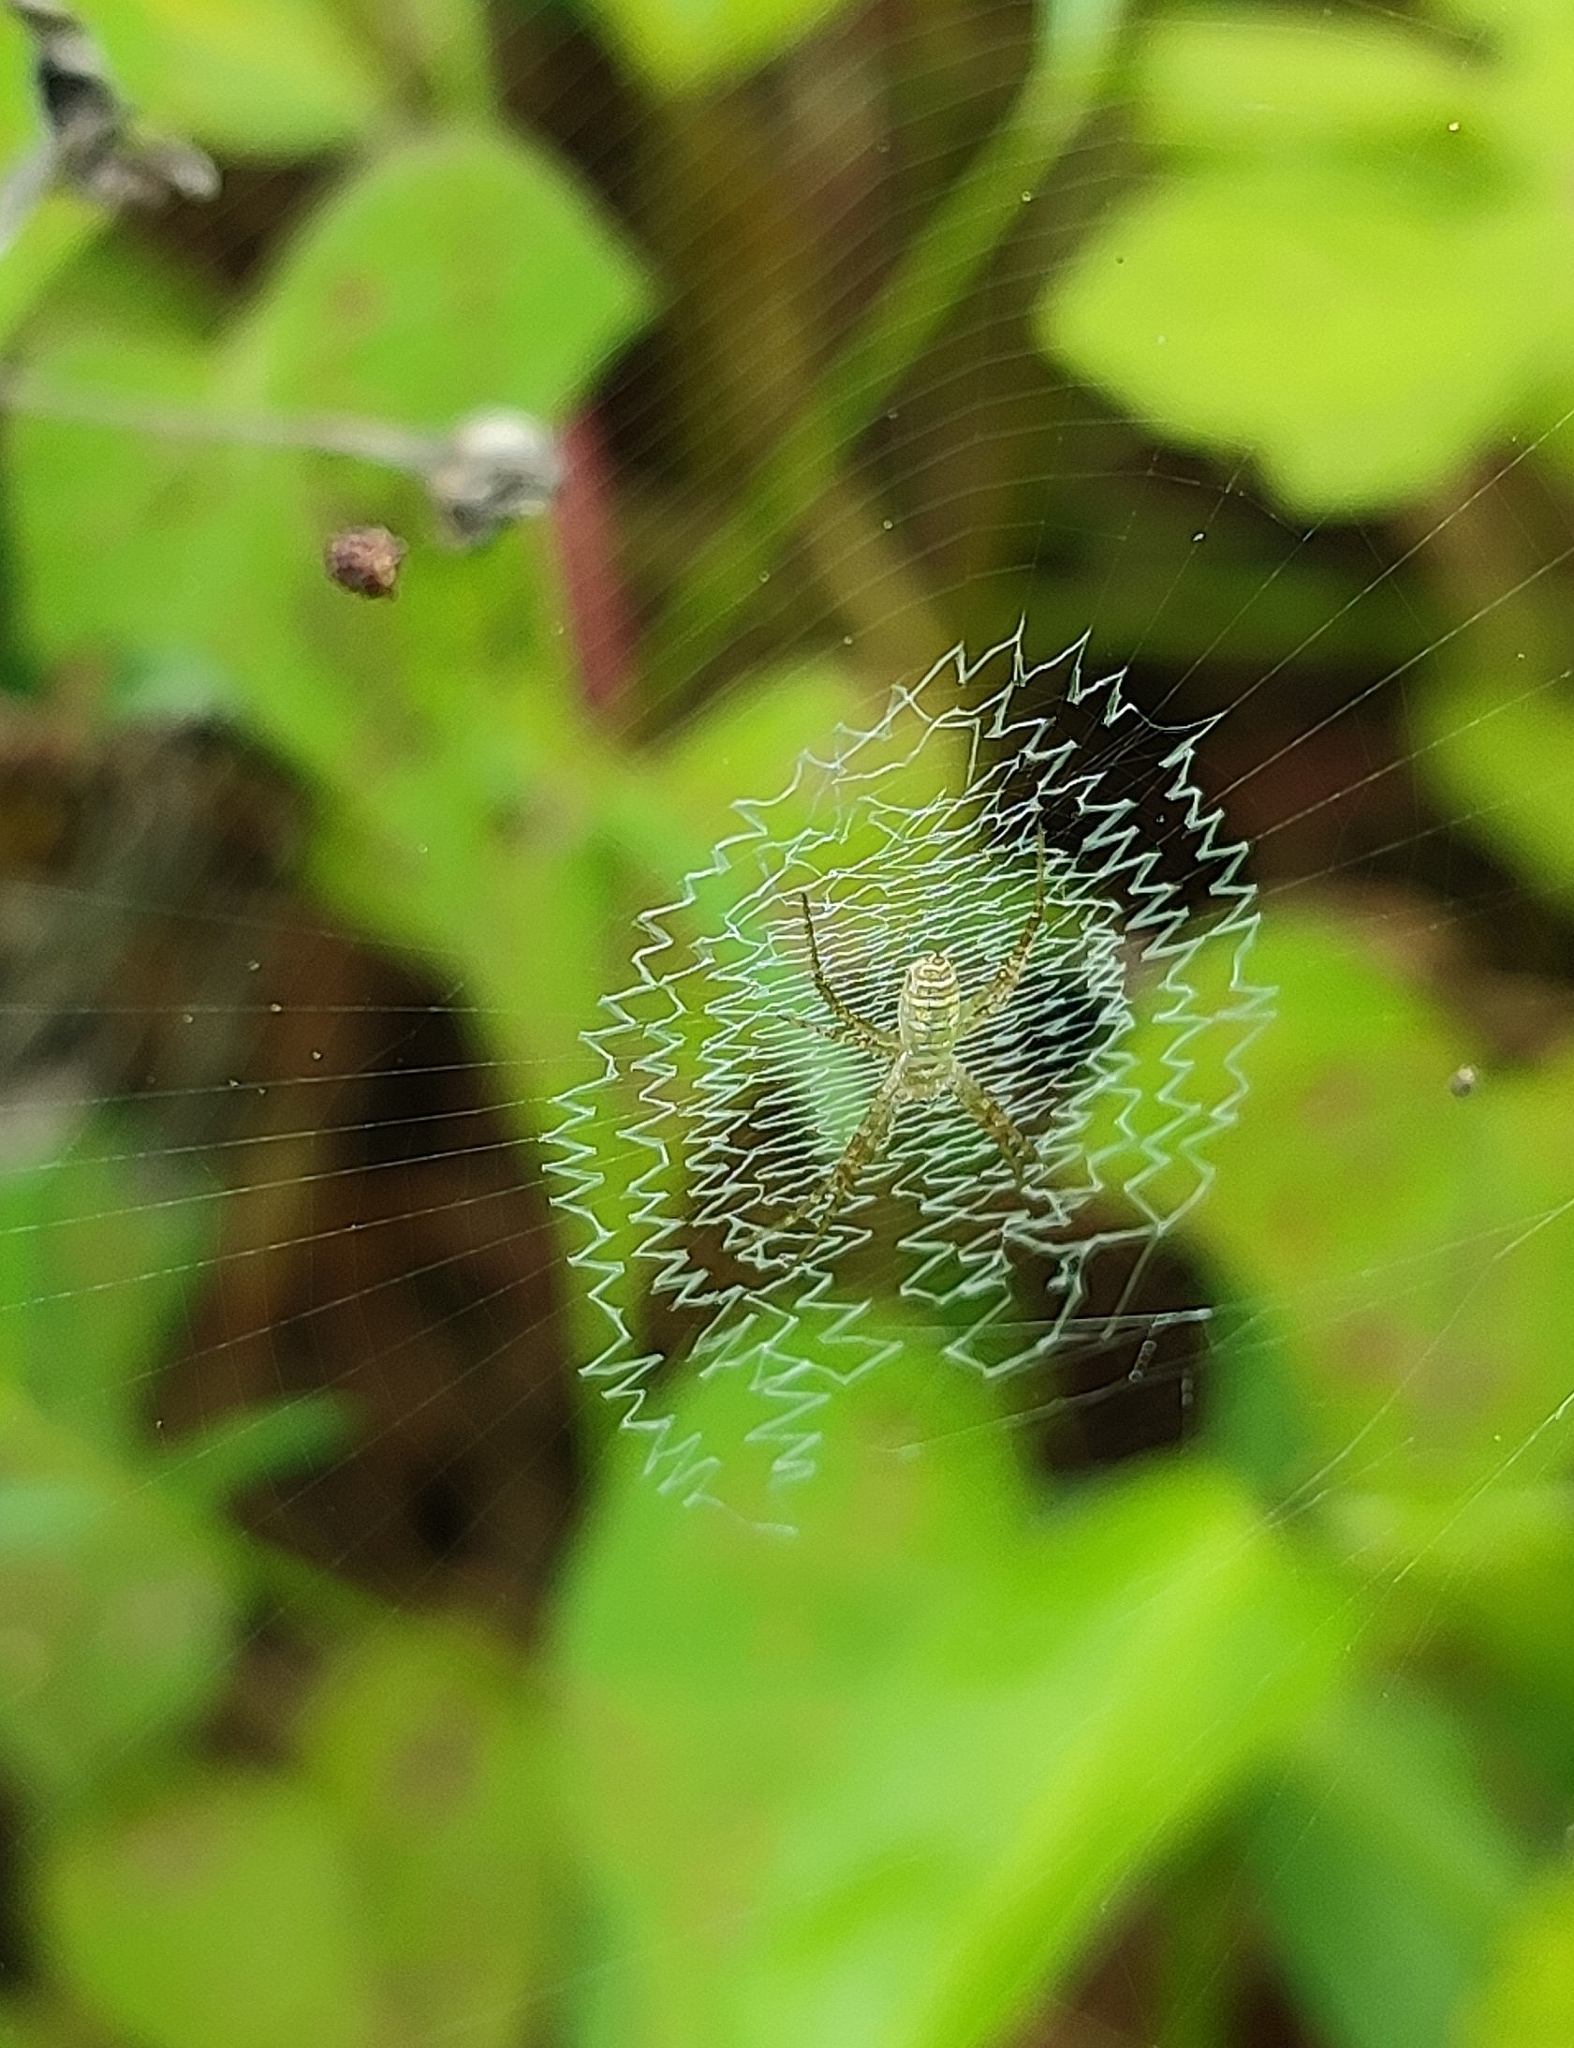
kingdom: Animalia
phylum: Arthropoda
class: Arachnida
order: Araneae
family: Araneidae
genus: Argiope
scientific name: Argiope trifasciata
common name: Banded garden spider
